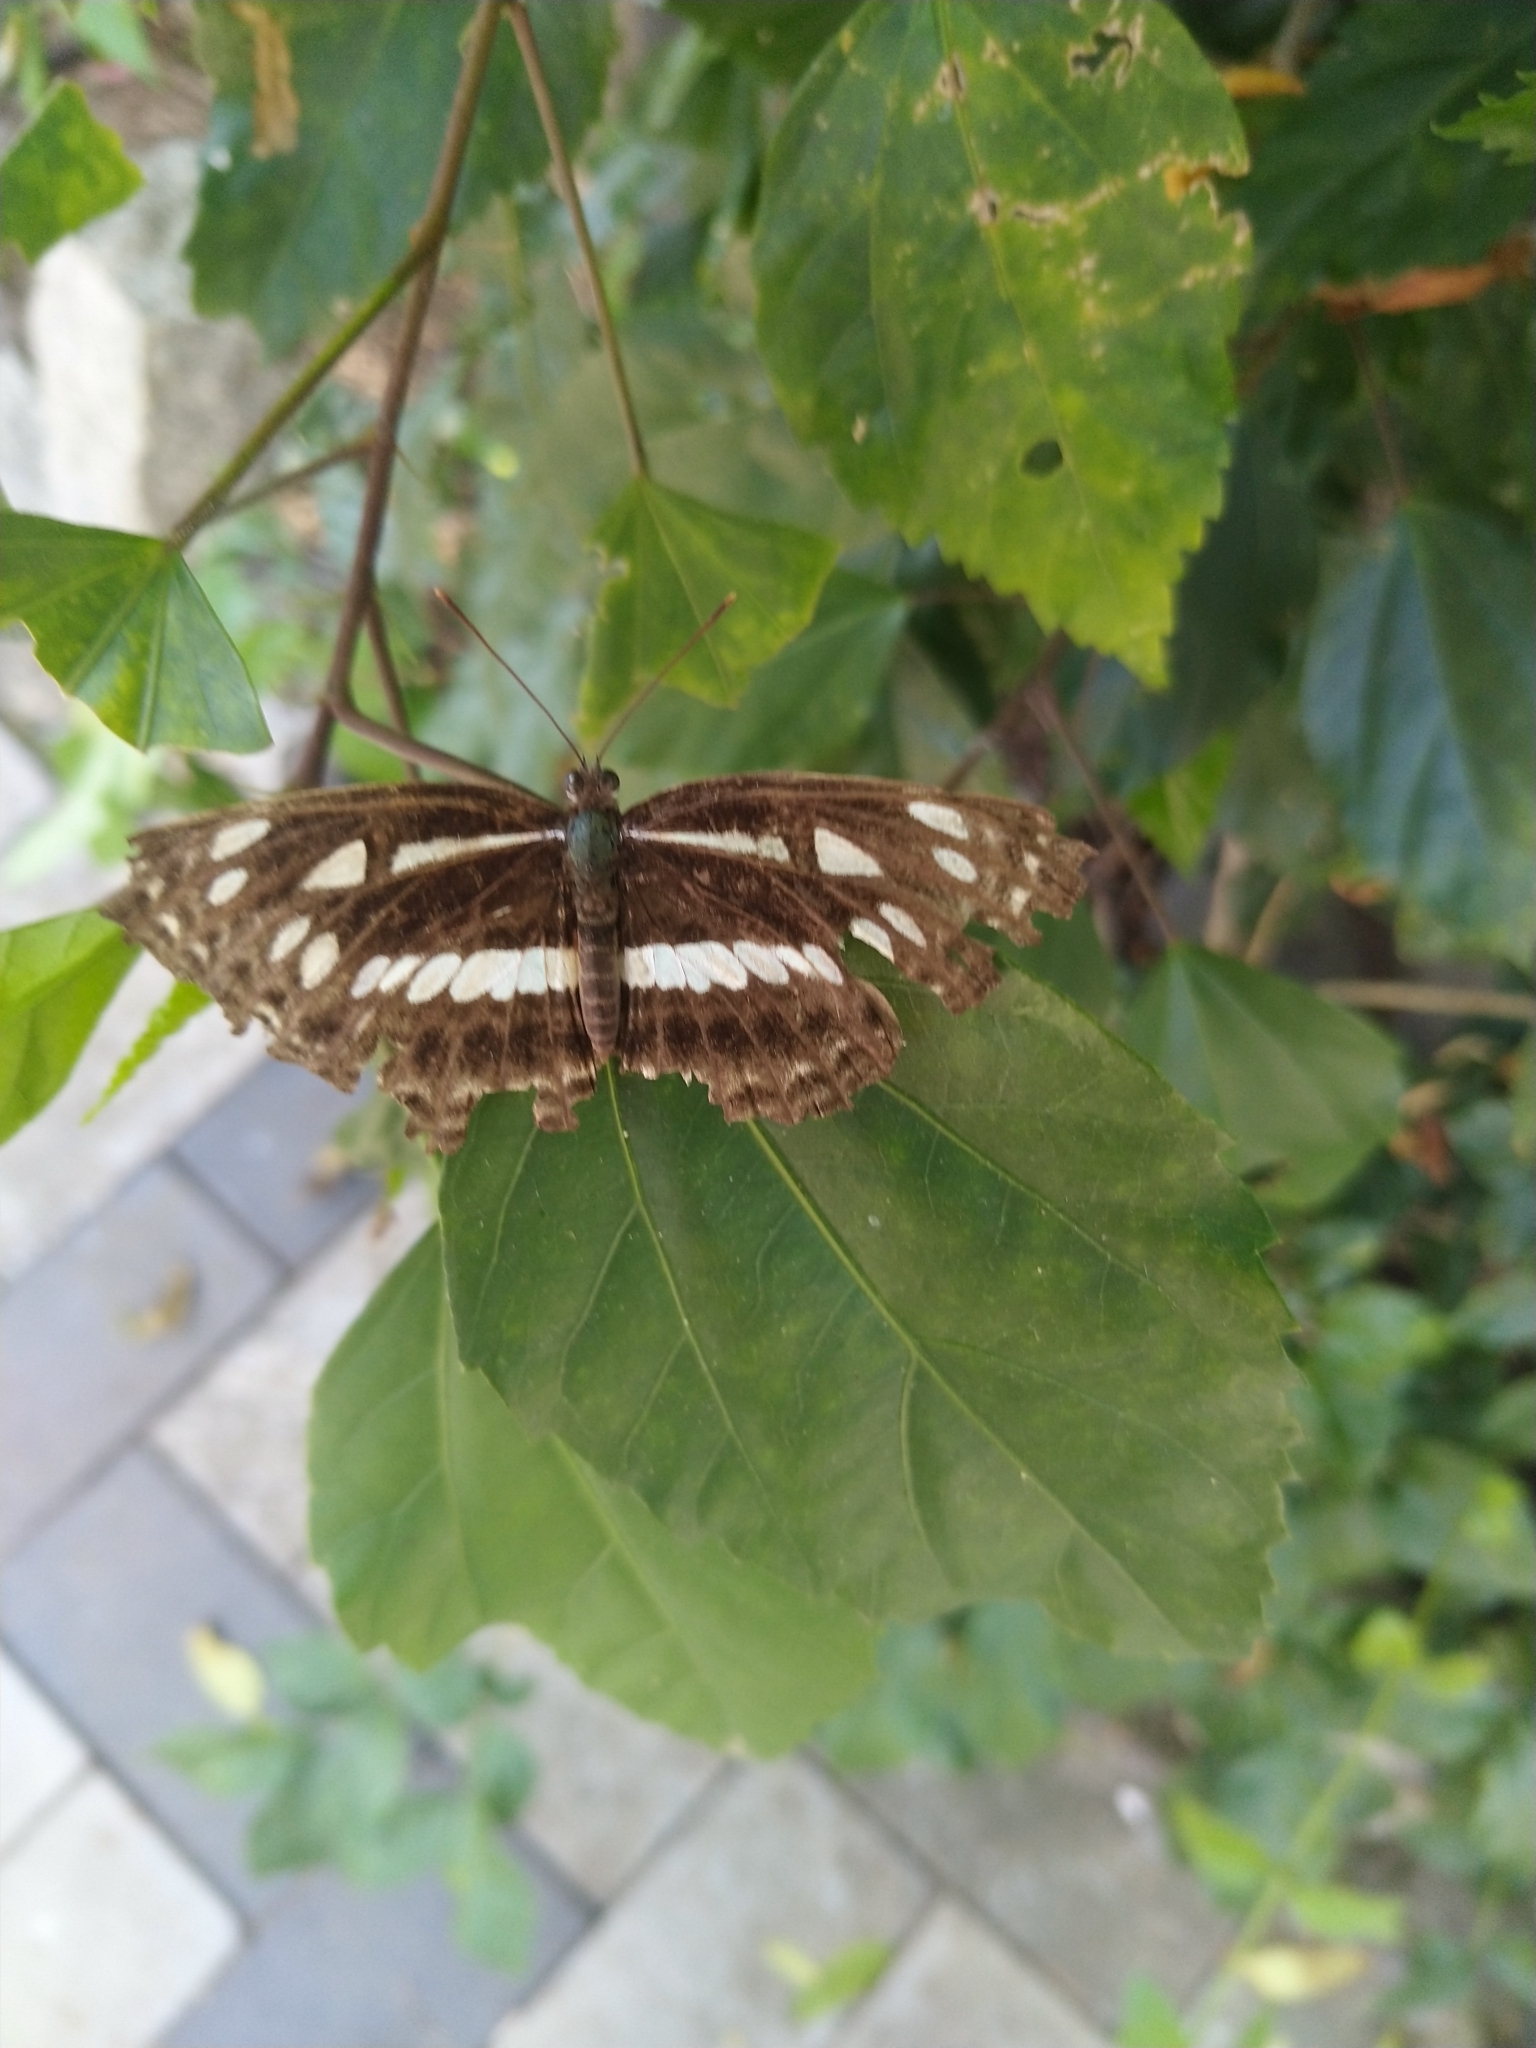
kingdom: Animalia
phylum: Arthropoda
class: Insecta
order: Lepidoptera
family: Nymphalidae
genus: Neptis
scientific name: Neptis jumbah
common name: Chestnut-streaked sailer
